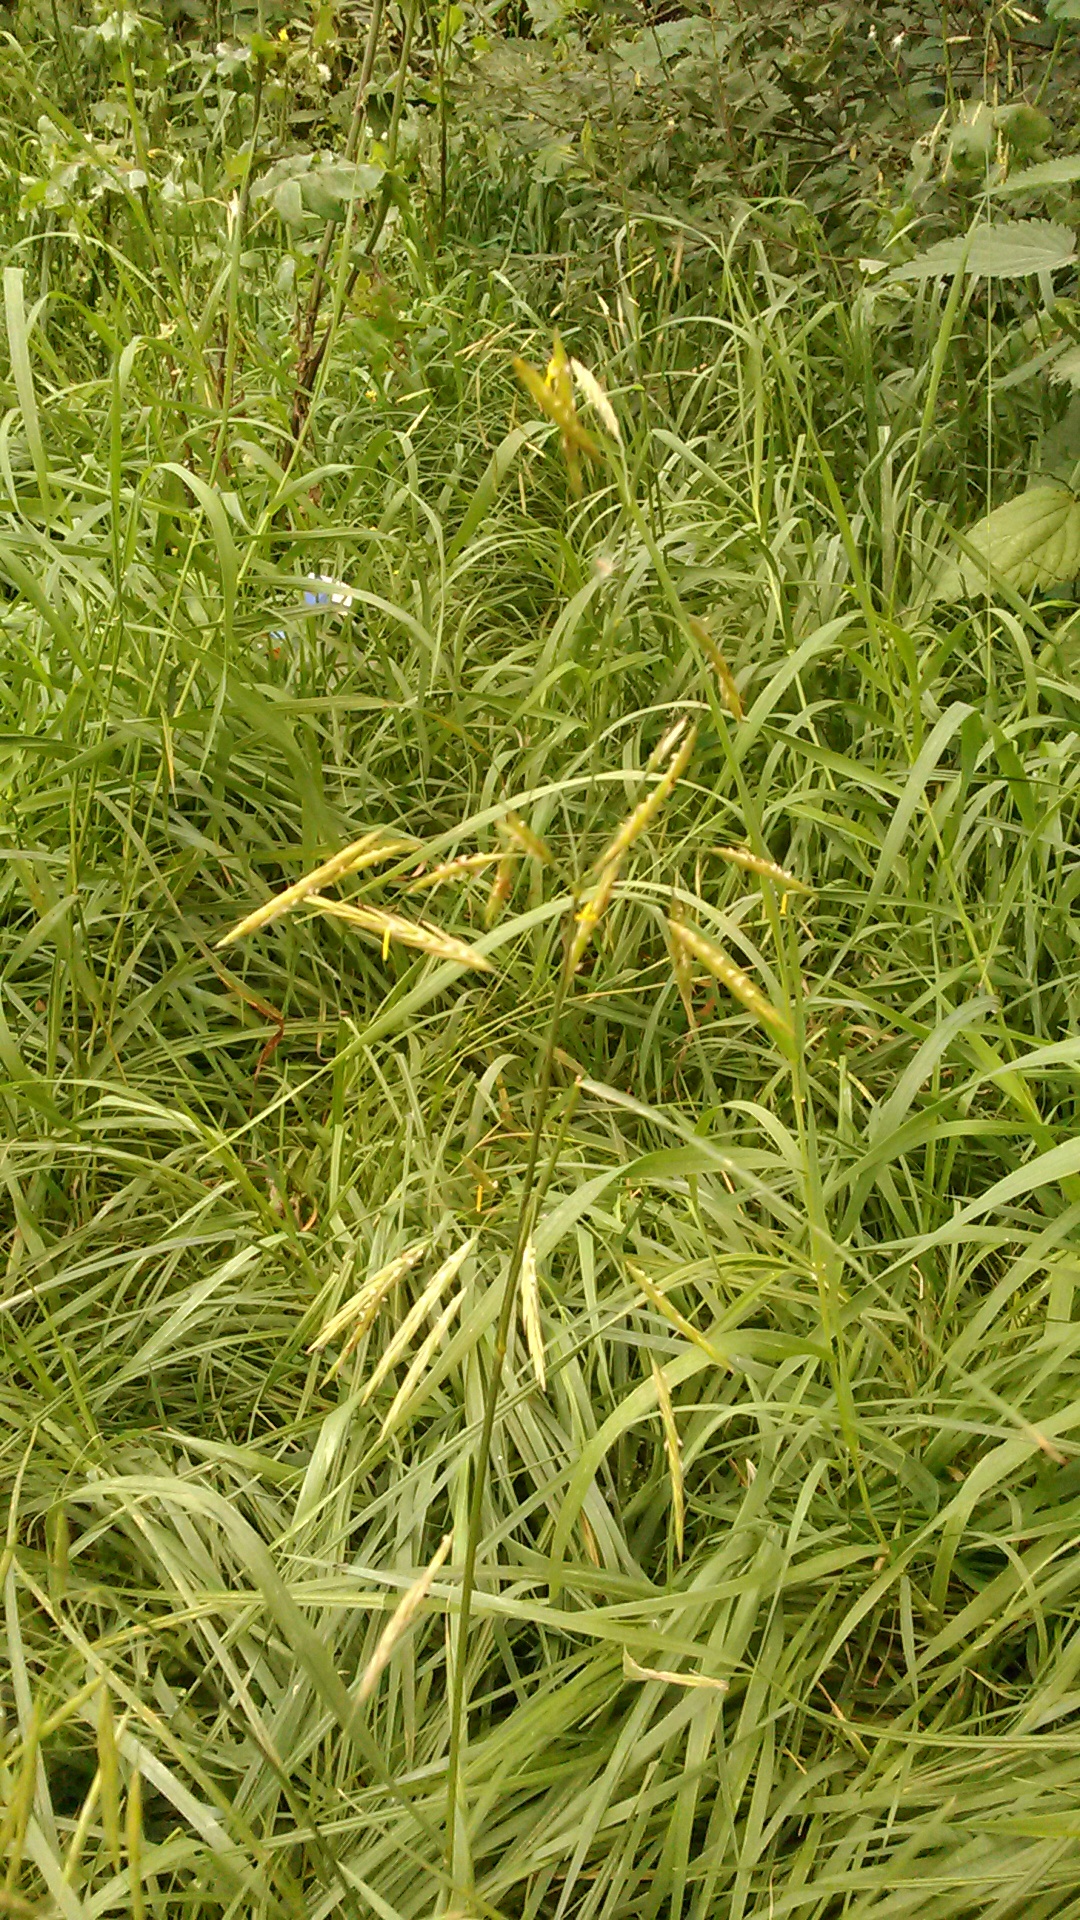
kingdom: Plantae
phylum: Tracheophyta
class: Liliopsida
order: Poales
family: Poaceae
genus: Bromus
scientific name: Bromus inermis
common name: Smooth brome
